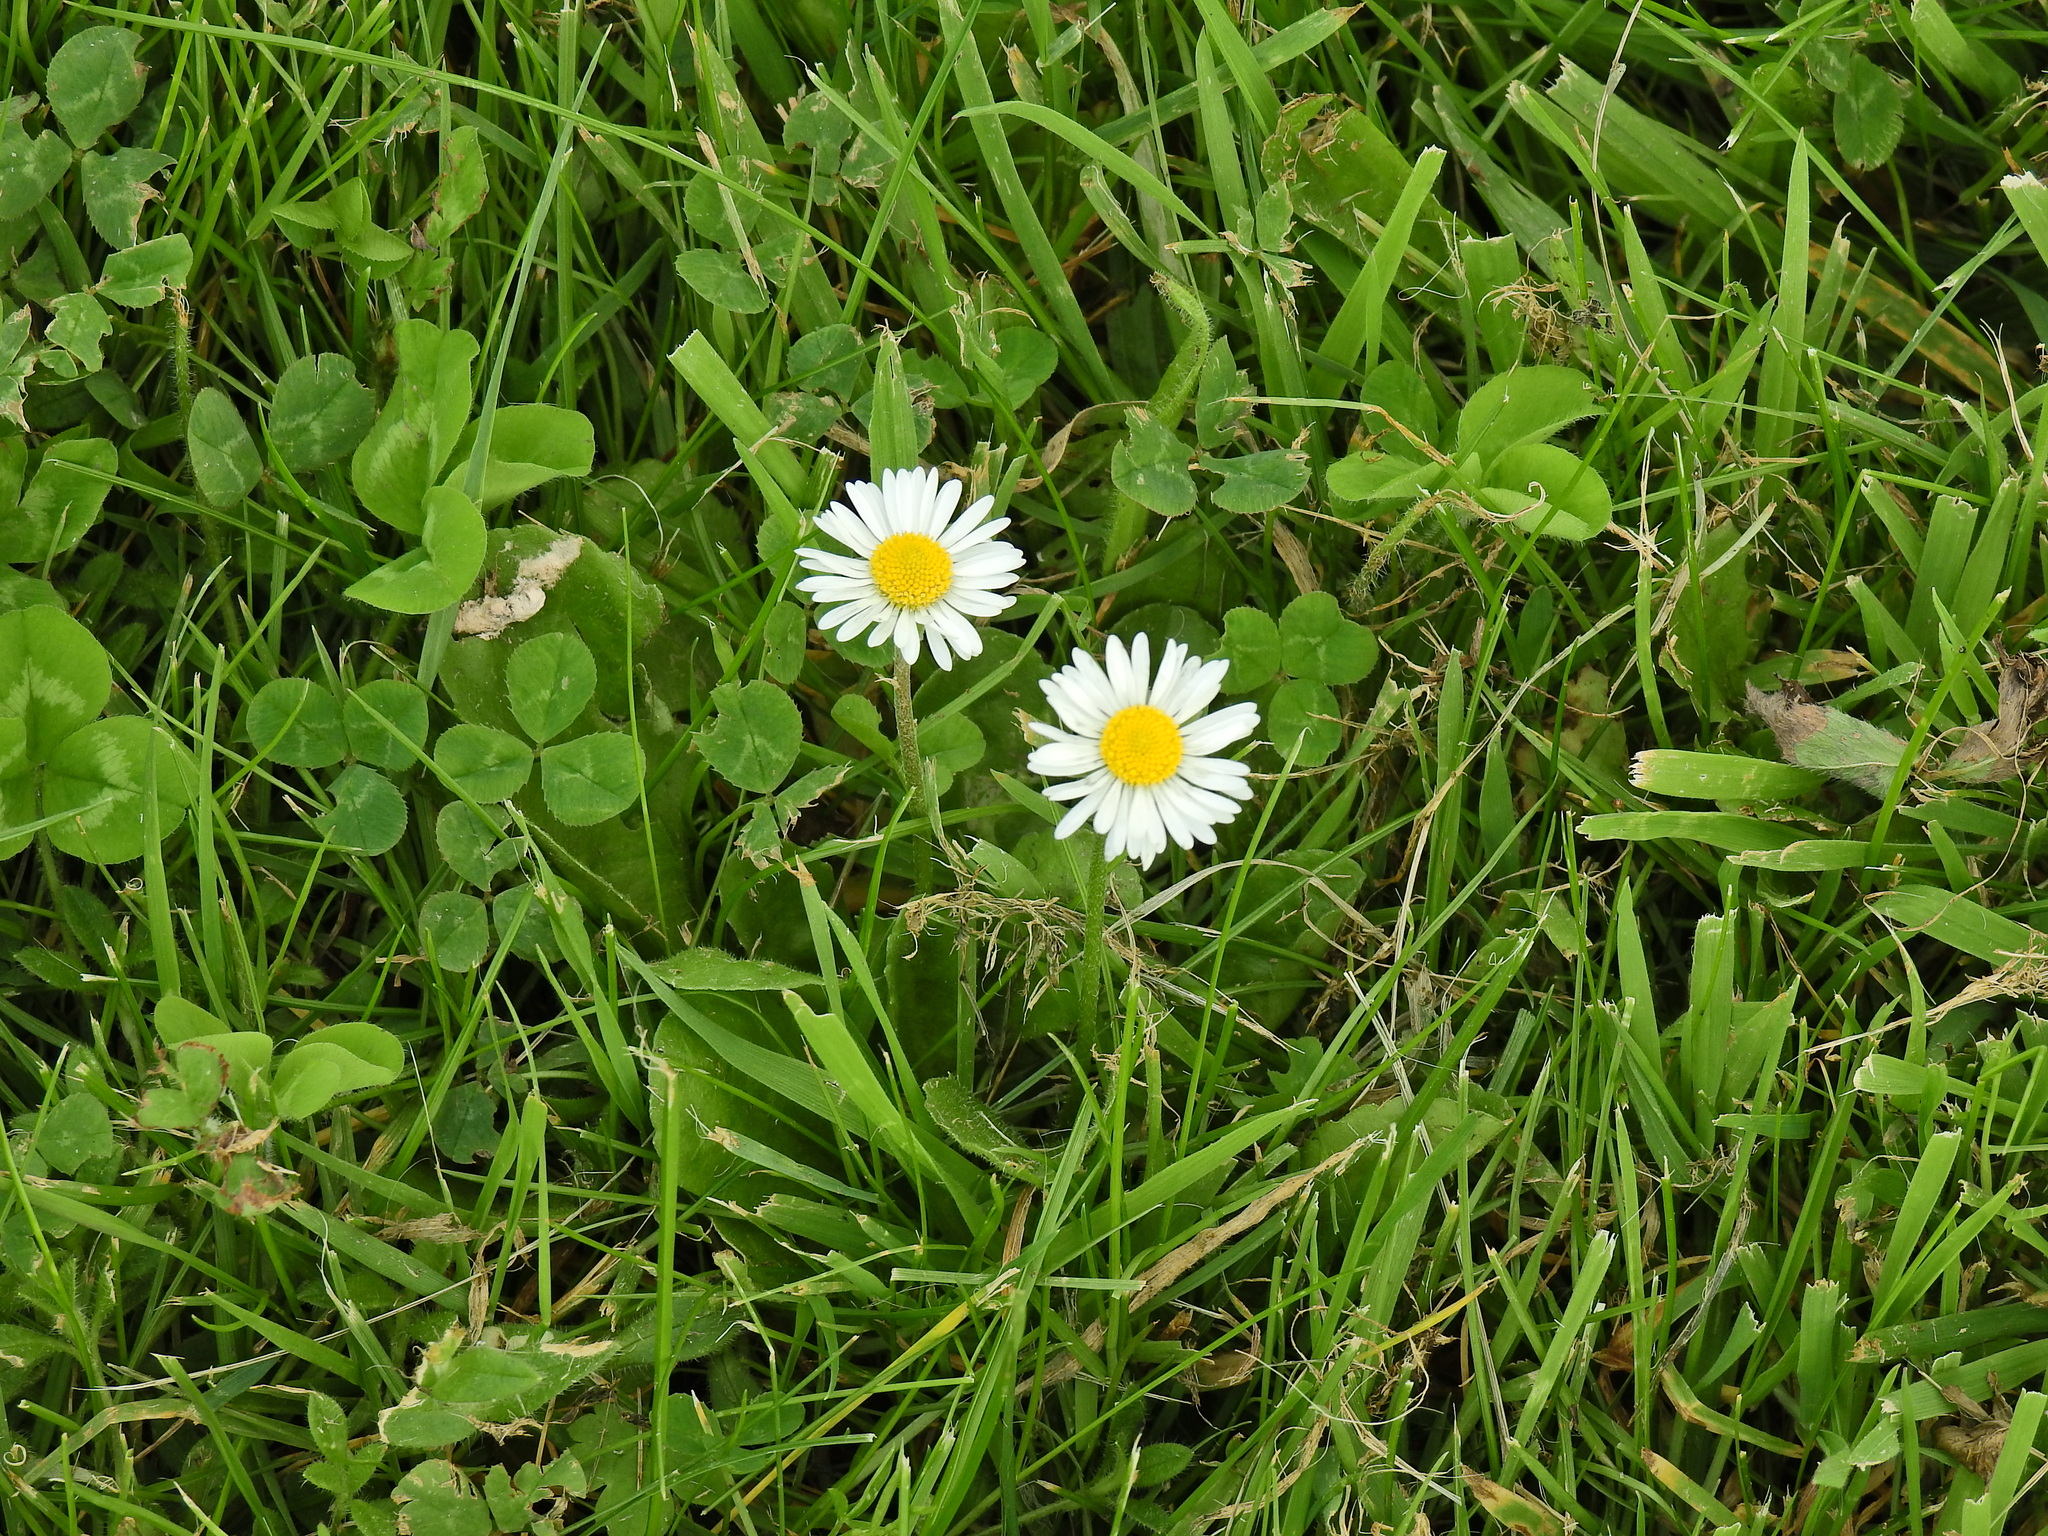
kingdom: Plantae
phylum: Tracheophyta
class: Magnoliopsida
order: Asterales
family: Asteraceae
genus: Bellis
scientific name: Bellis perennis
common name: Lawndaisy
